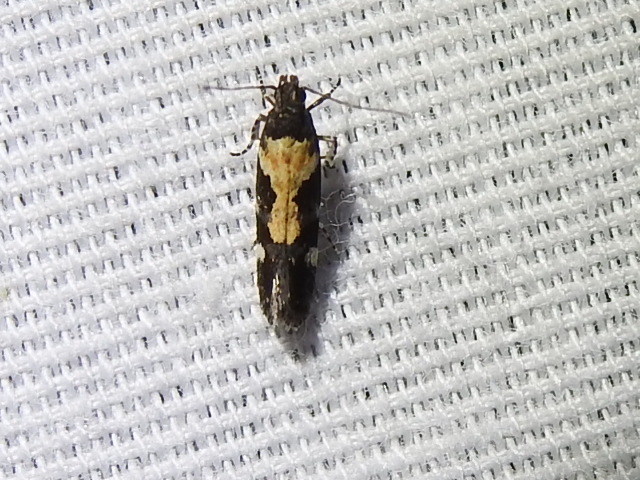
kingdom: Animalia
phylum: Arthropoda
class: Insecta
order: Lepidoptera
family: Gelechiidae
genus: Stegasta
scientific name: Stegasta bosqueella
